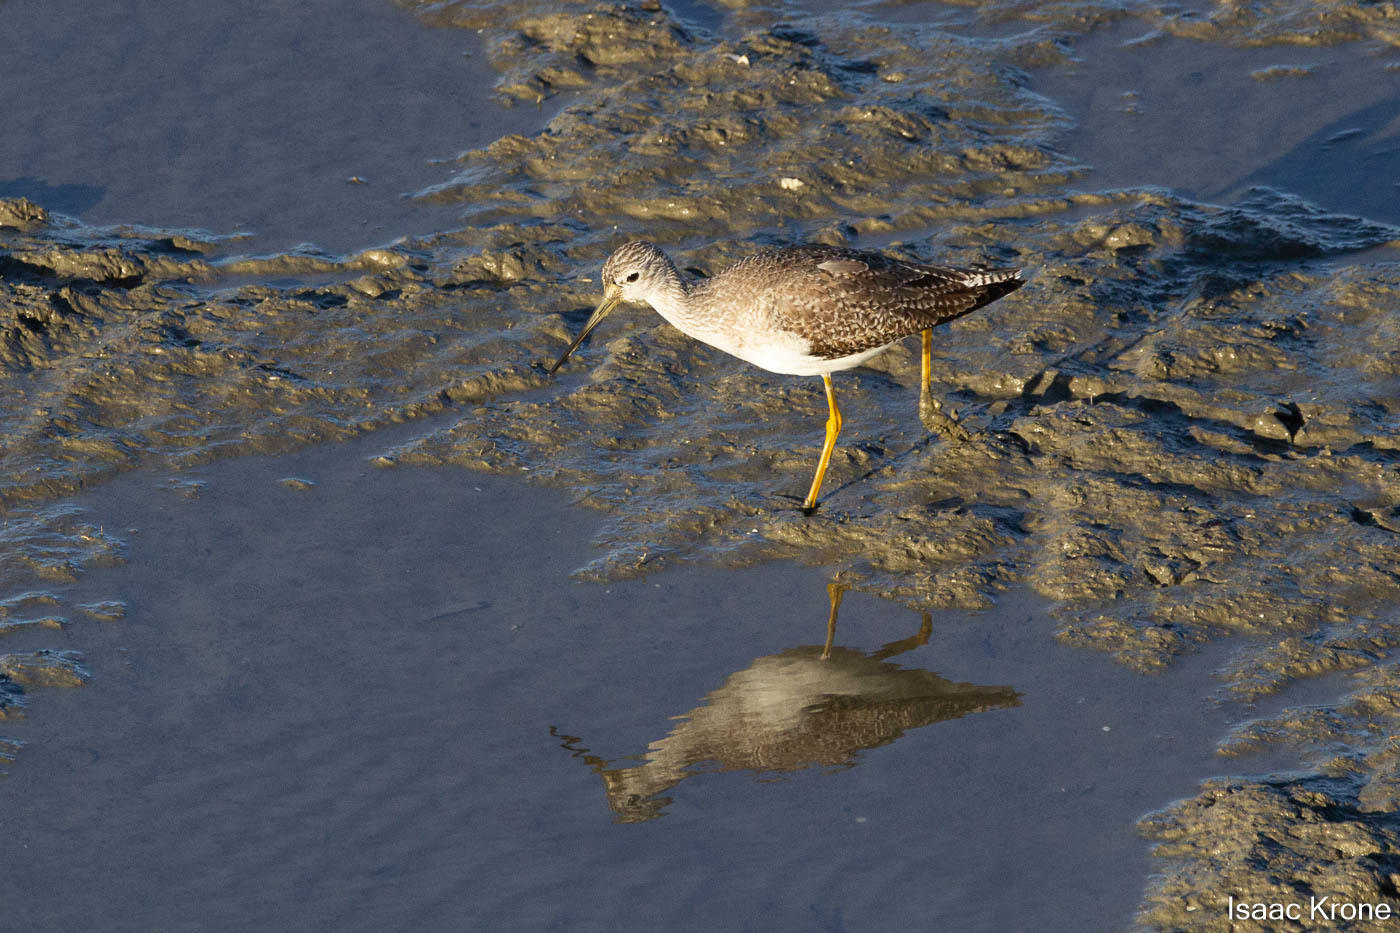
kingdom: Animalia
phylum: Chordata
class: Aves
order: Charadriiformes
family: Scolopacidae
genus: Tringa
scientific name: Tringa melanoleuca
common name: Greater yellowlegs
